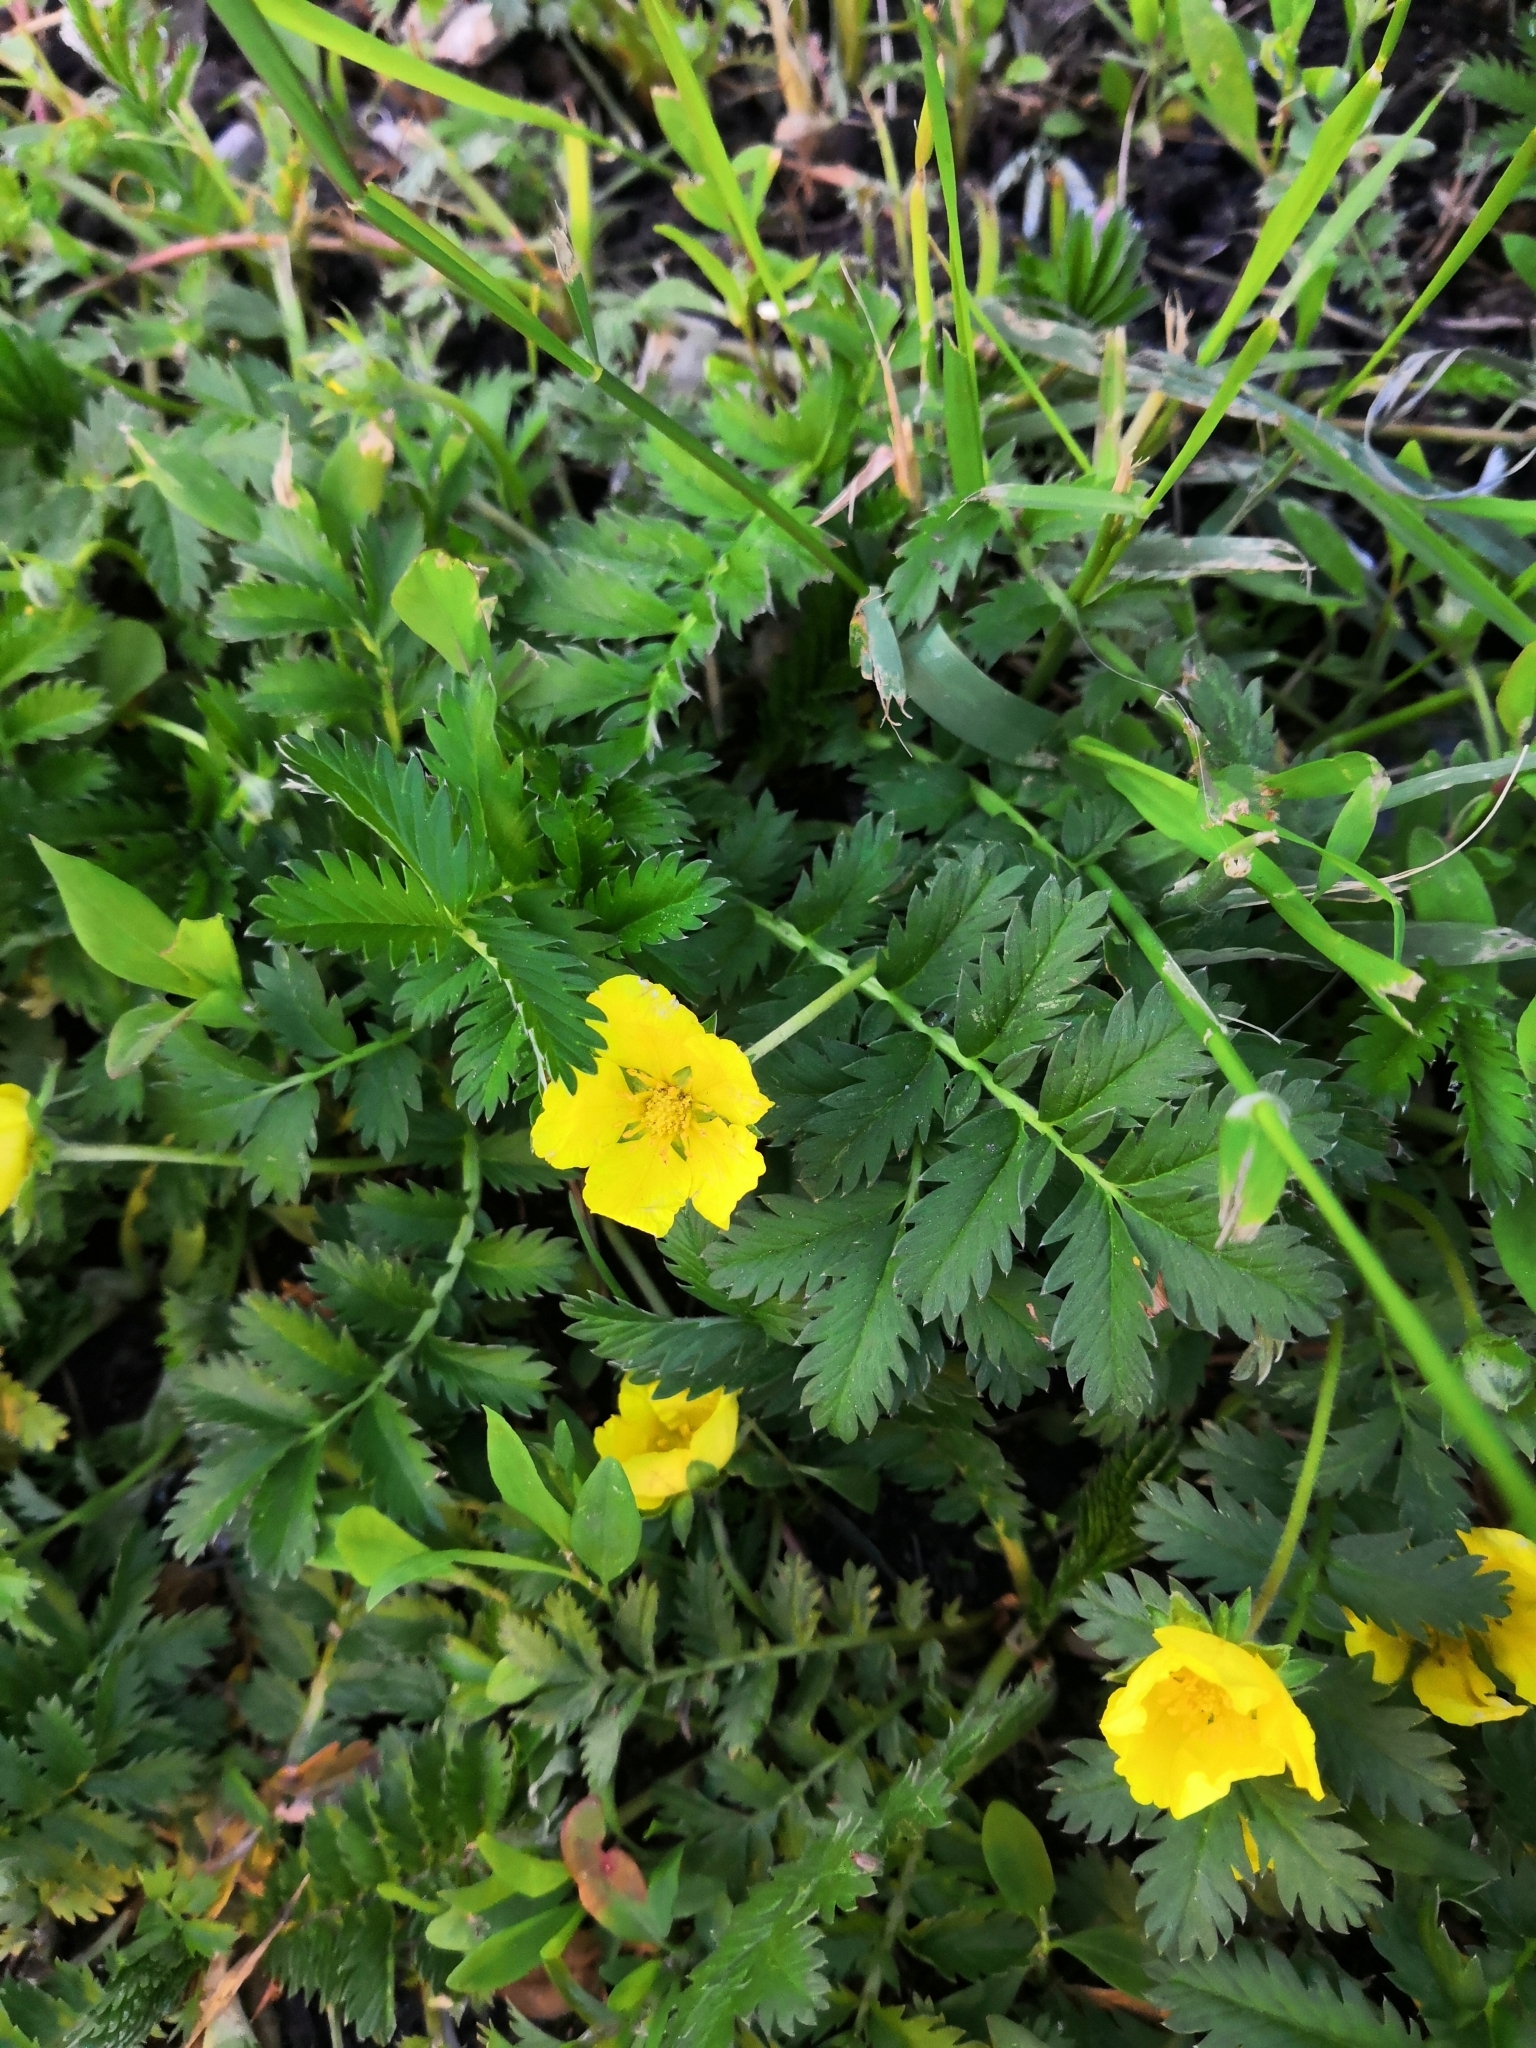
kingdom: Plantae
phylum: Tracheophyta
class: Magnoliopsida
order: Rosales
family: Rosaceae
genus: Argentina
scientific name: Argentina anserina
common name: Common silverweed
